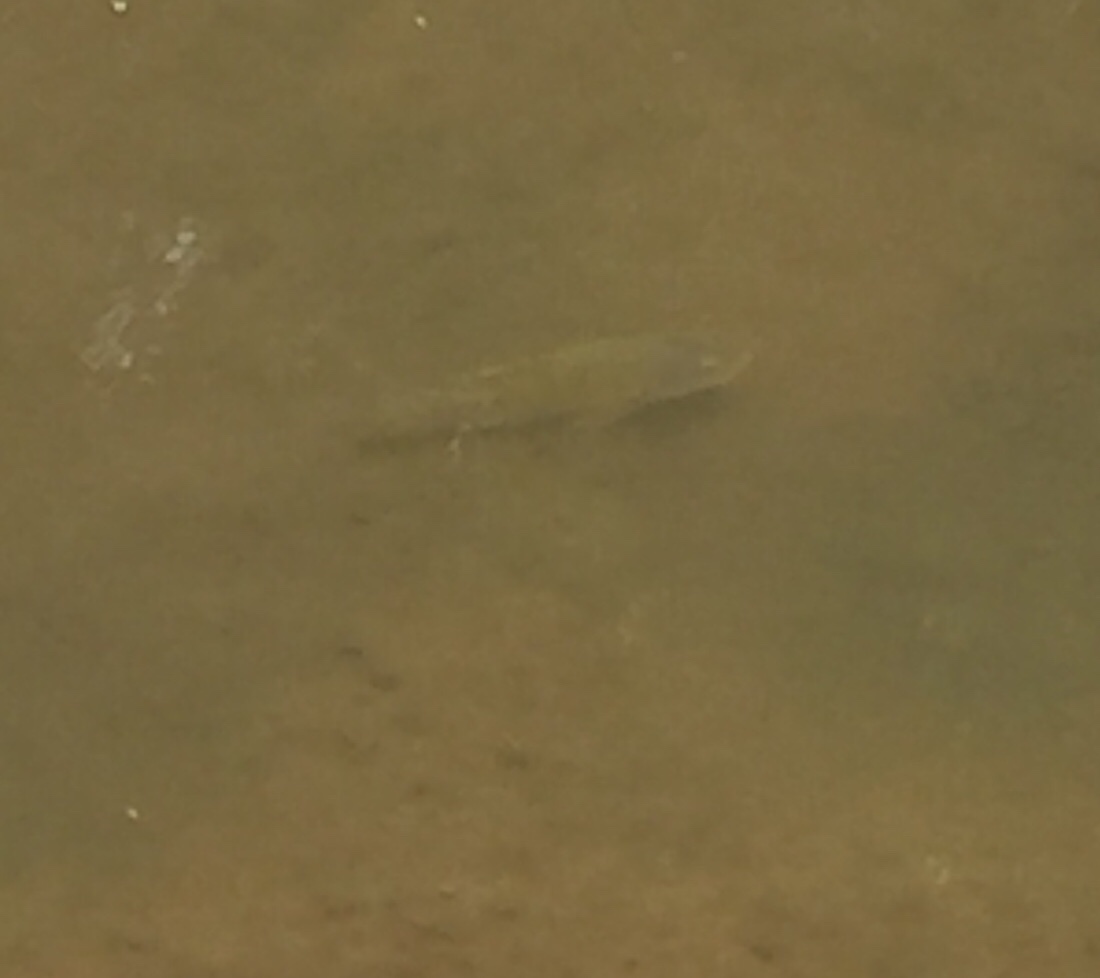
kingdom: Animalia
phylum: Chordata
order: Perciformes
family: Cichlidae
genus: Oreochromis
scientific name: Oreochromis niloticus
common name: Nile tilapia
